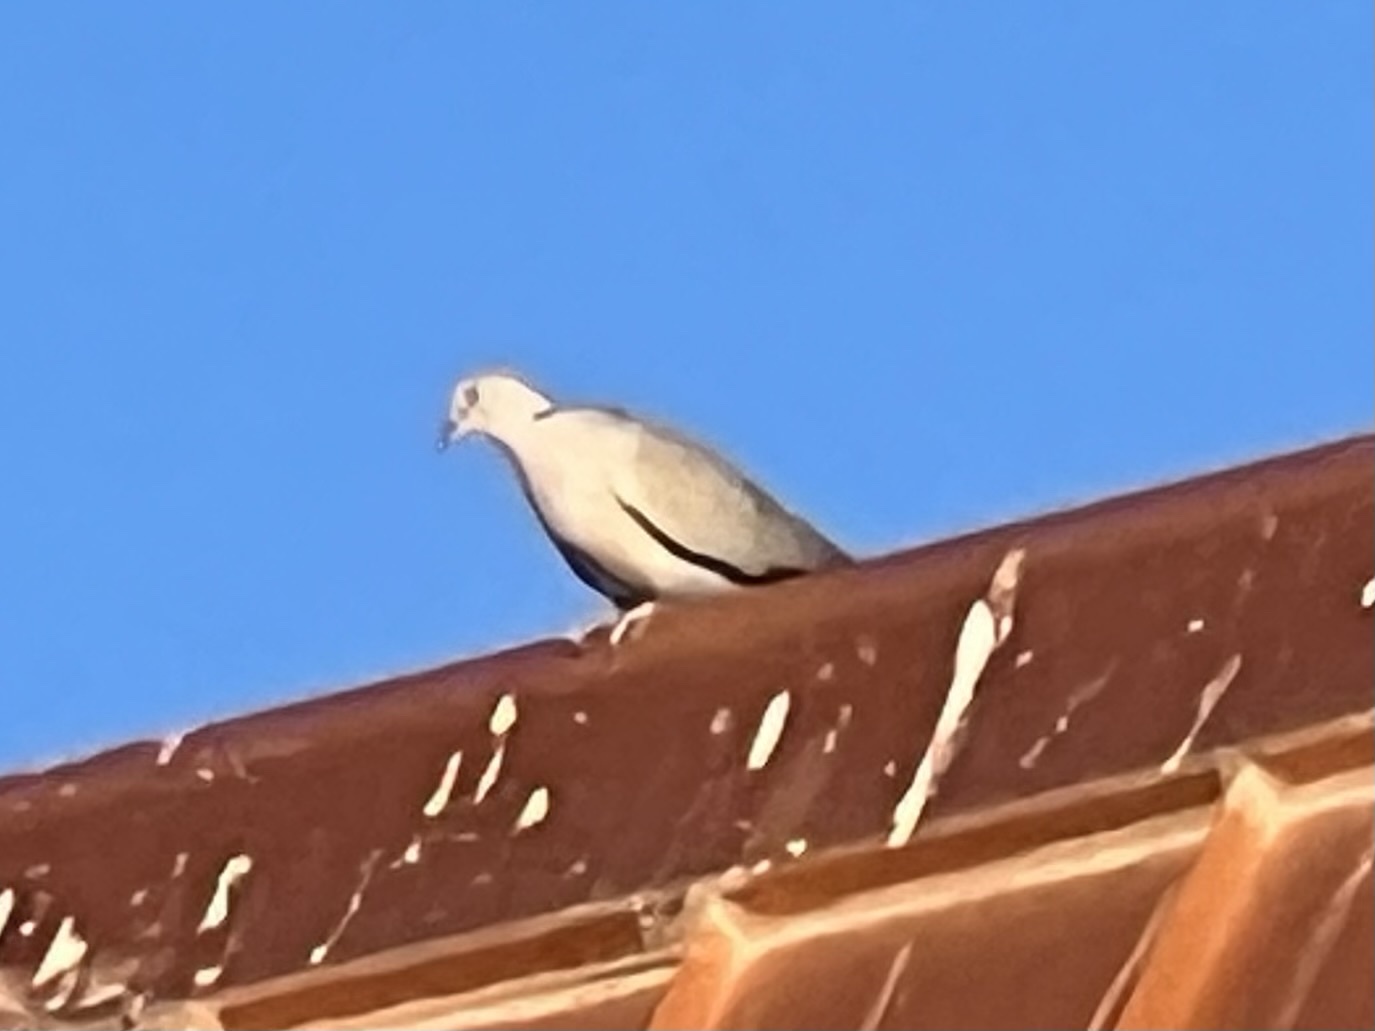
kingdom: Animalia
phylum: Chordata
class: Aves
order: Columbiformes
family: Columbidae
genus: Streptopelia
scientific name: Streptopelia decaocto
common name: Eurasian collared dove
